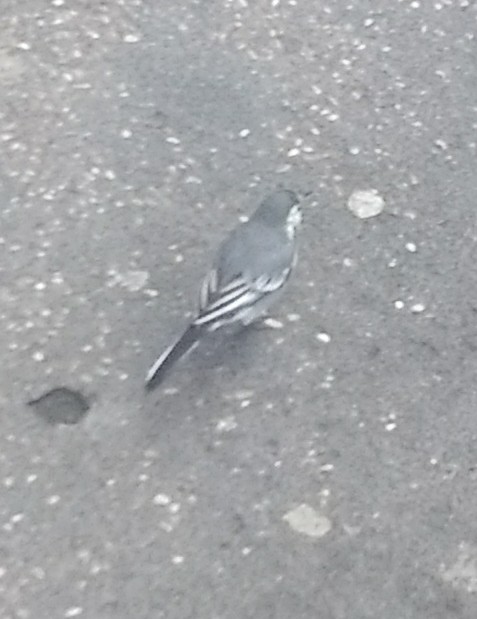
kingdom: Animalia
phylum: Chordata
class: Aves
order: Passeriformes
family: Motacillidae
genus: Motacilla
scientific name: Motacilla alba
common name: White wagtail
